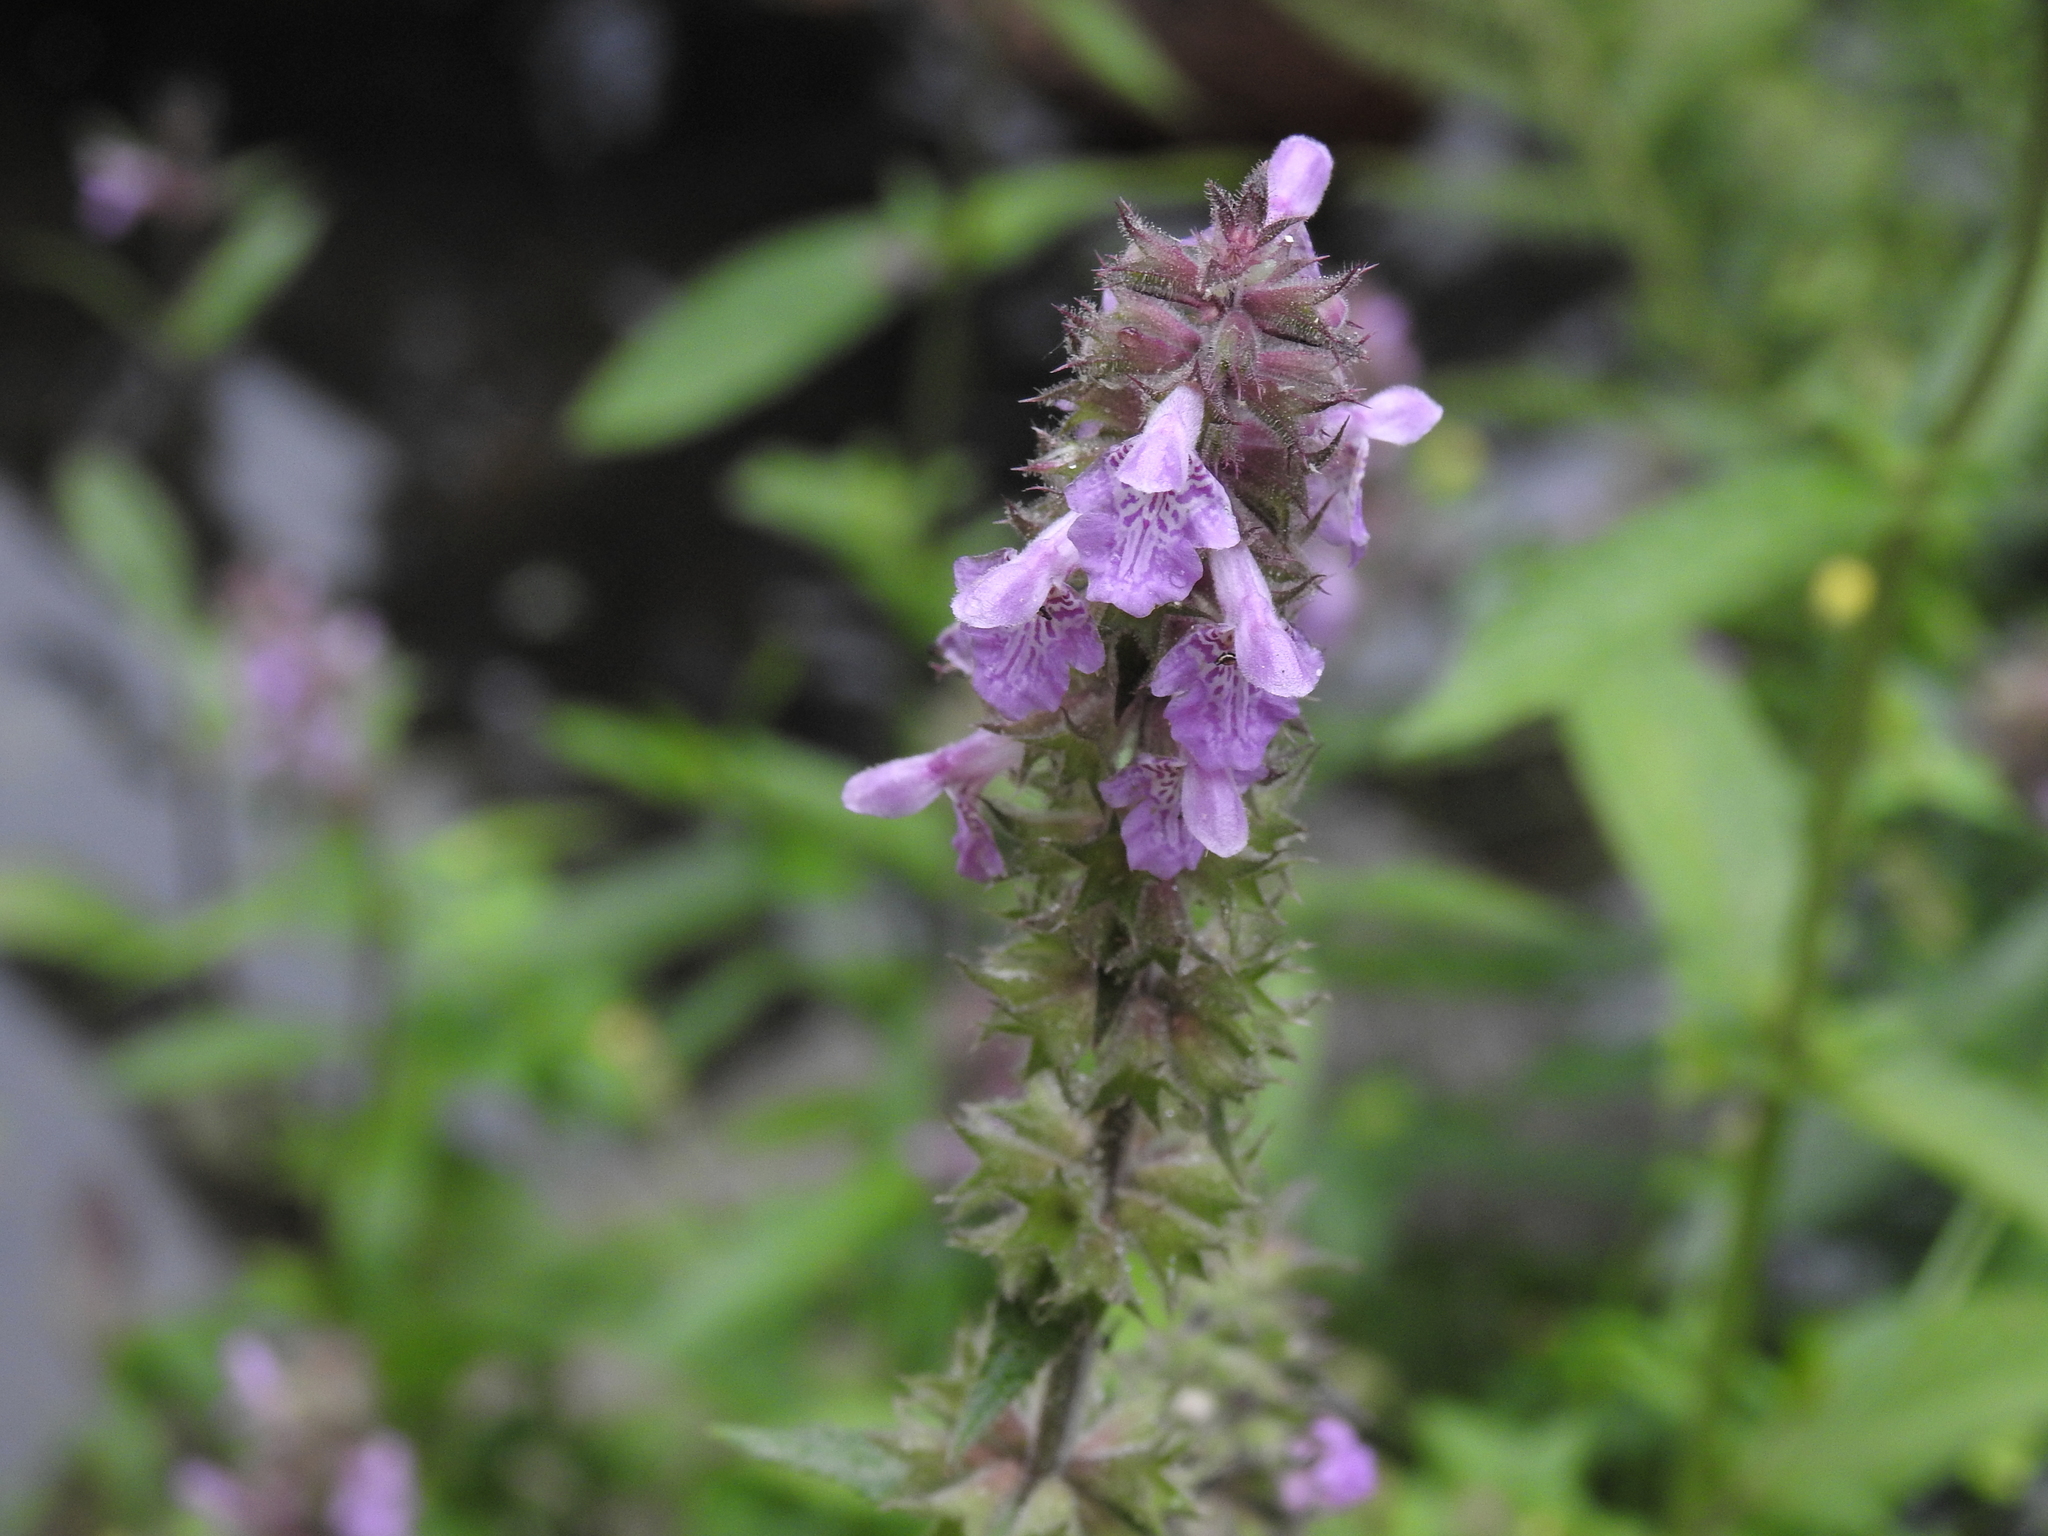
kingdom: Plantae
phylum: Tracheophyta
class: Magnoliopsida
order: Lamiales
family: Lamiaceae
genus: Stachys
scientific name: Stachys palustris
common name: Marsh woundwort
